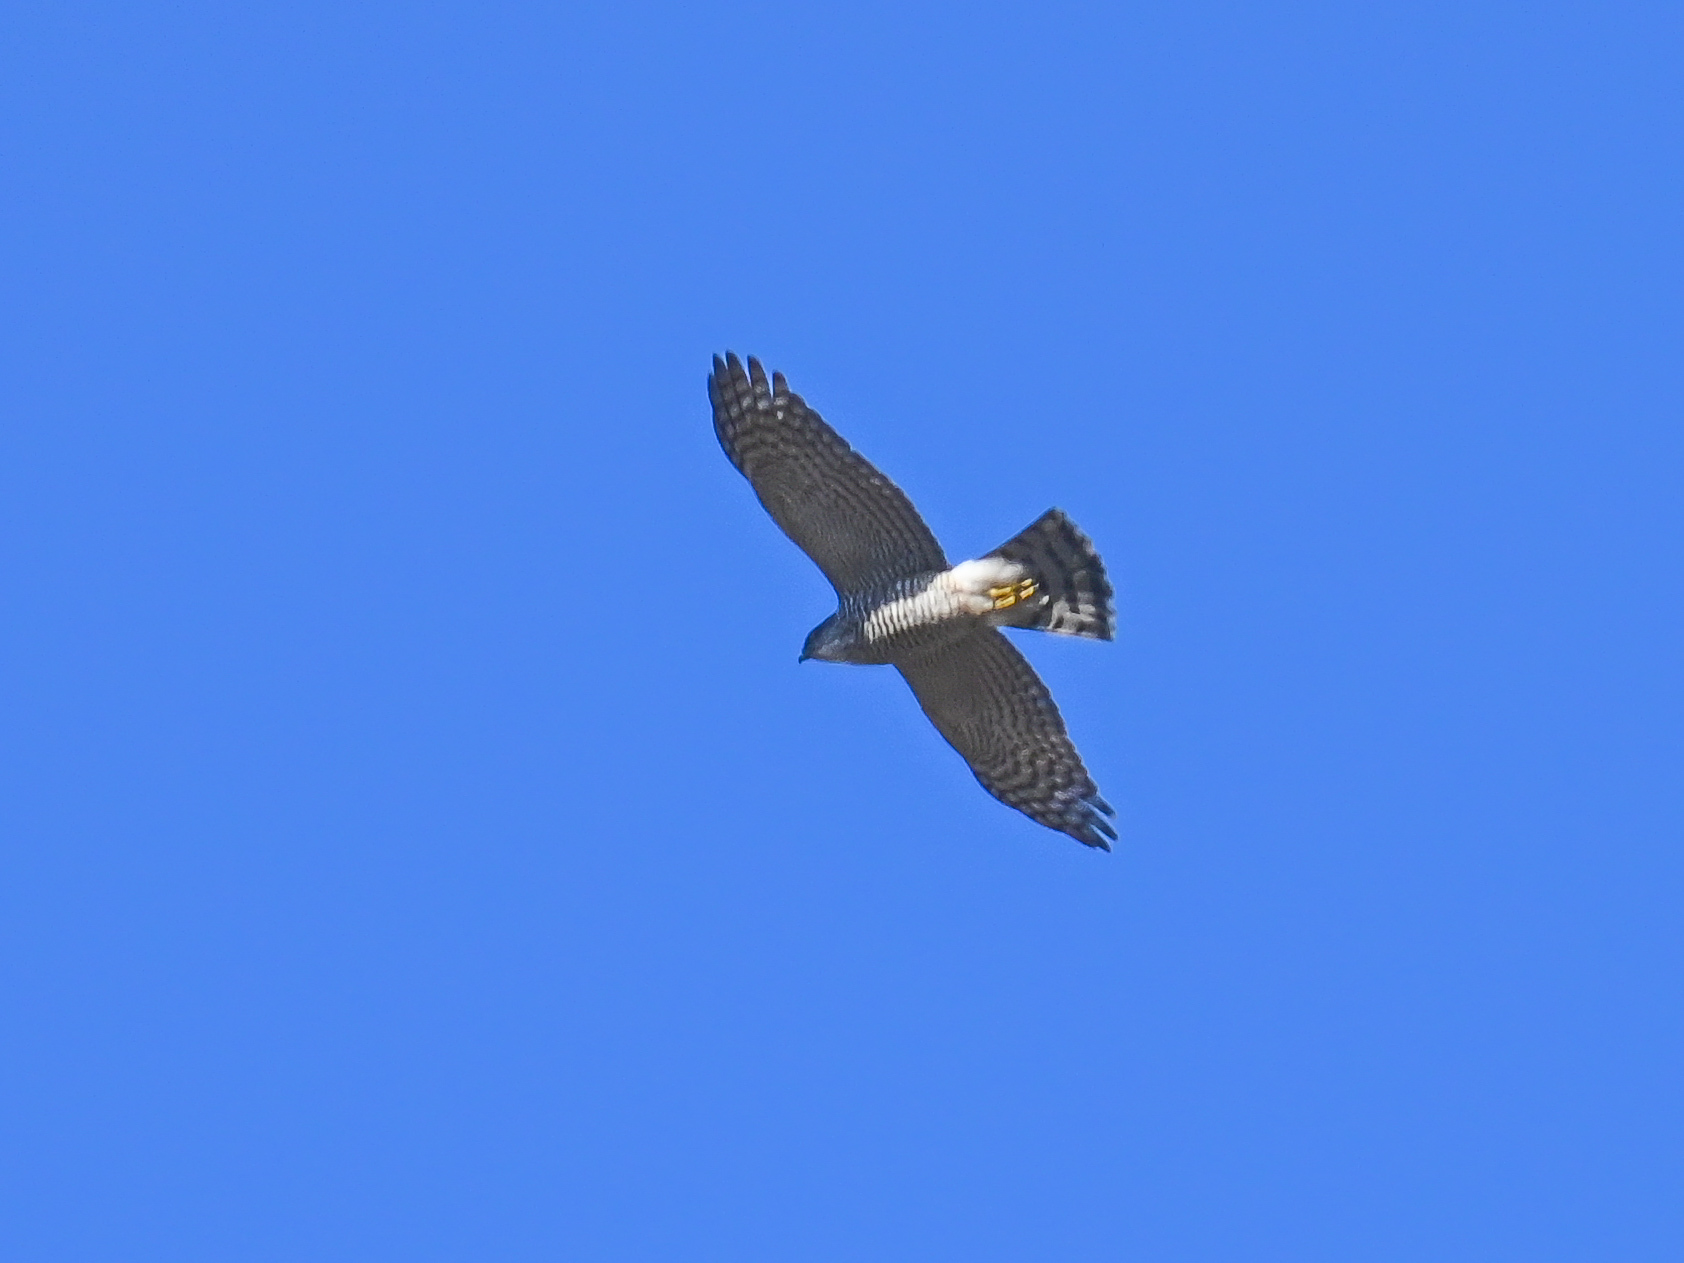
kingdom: Animalia
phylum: Chordata
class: Aves
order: Accipitriformes
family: Accipitridae
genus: Accipiter
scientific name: Accipiter nisus
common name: Eurasian sparrowhawk
